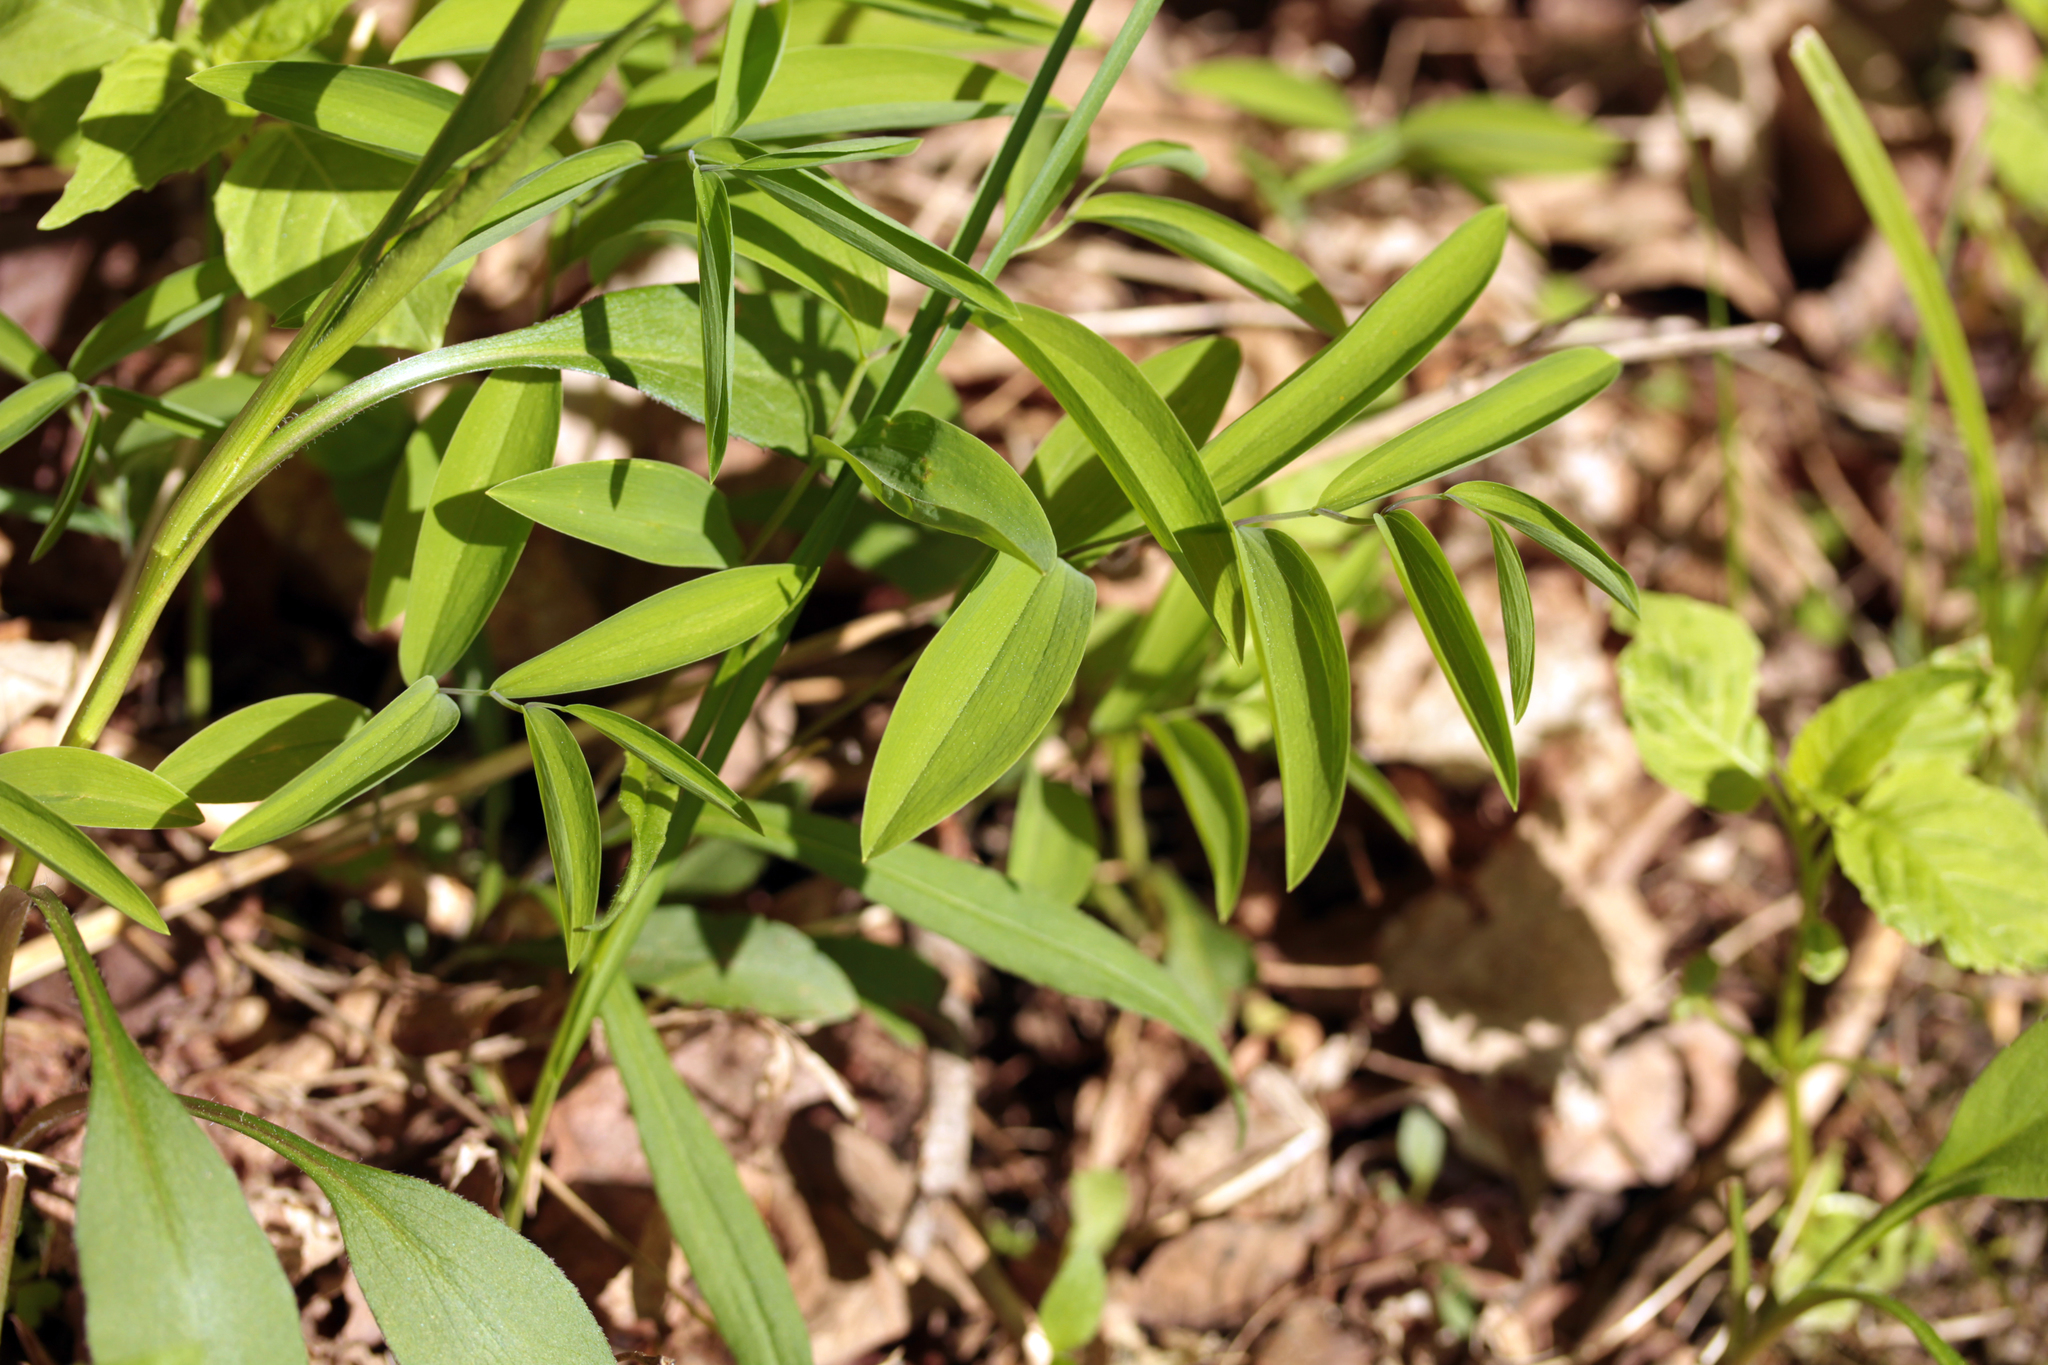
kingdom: Plantae
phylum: Tracheophyta
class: Liliopsida
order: Liliales
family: Colchicaceae
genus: Uvularia
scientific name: Uvularia sessilifolia
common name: Straw-lily
